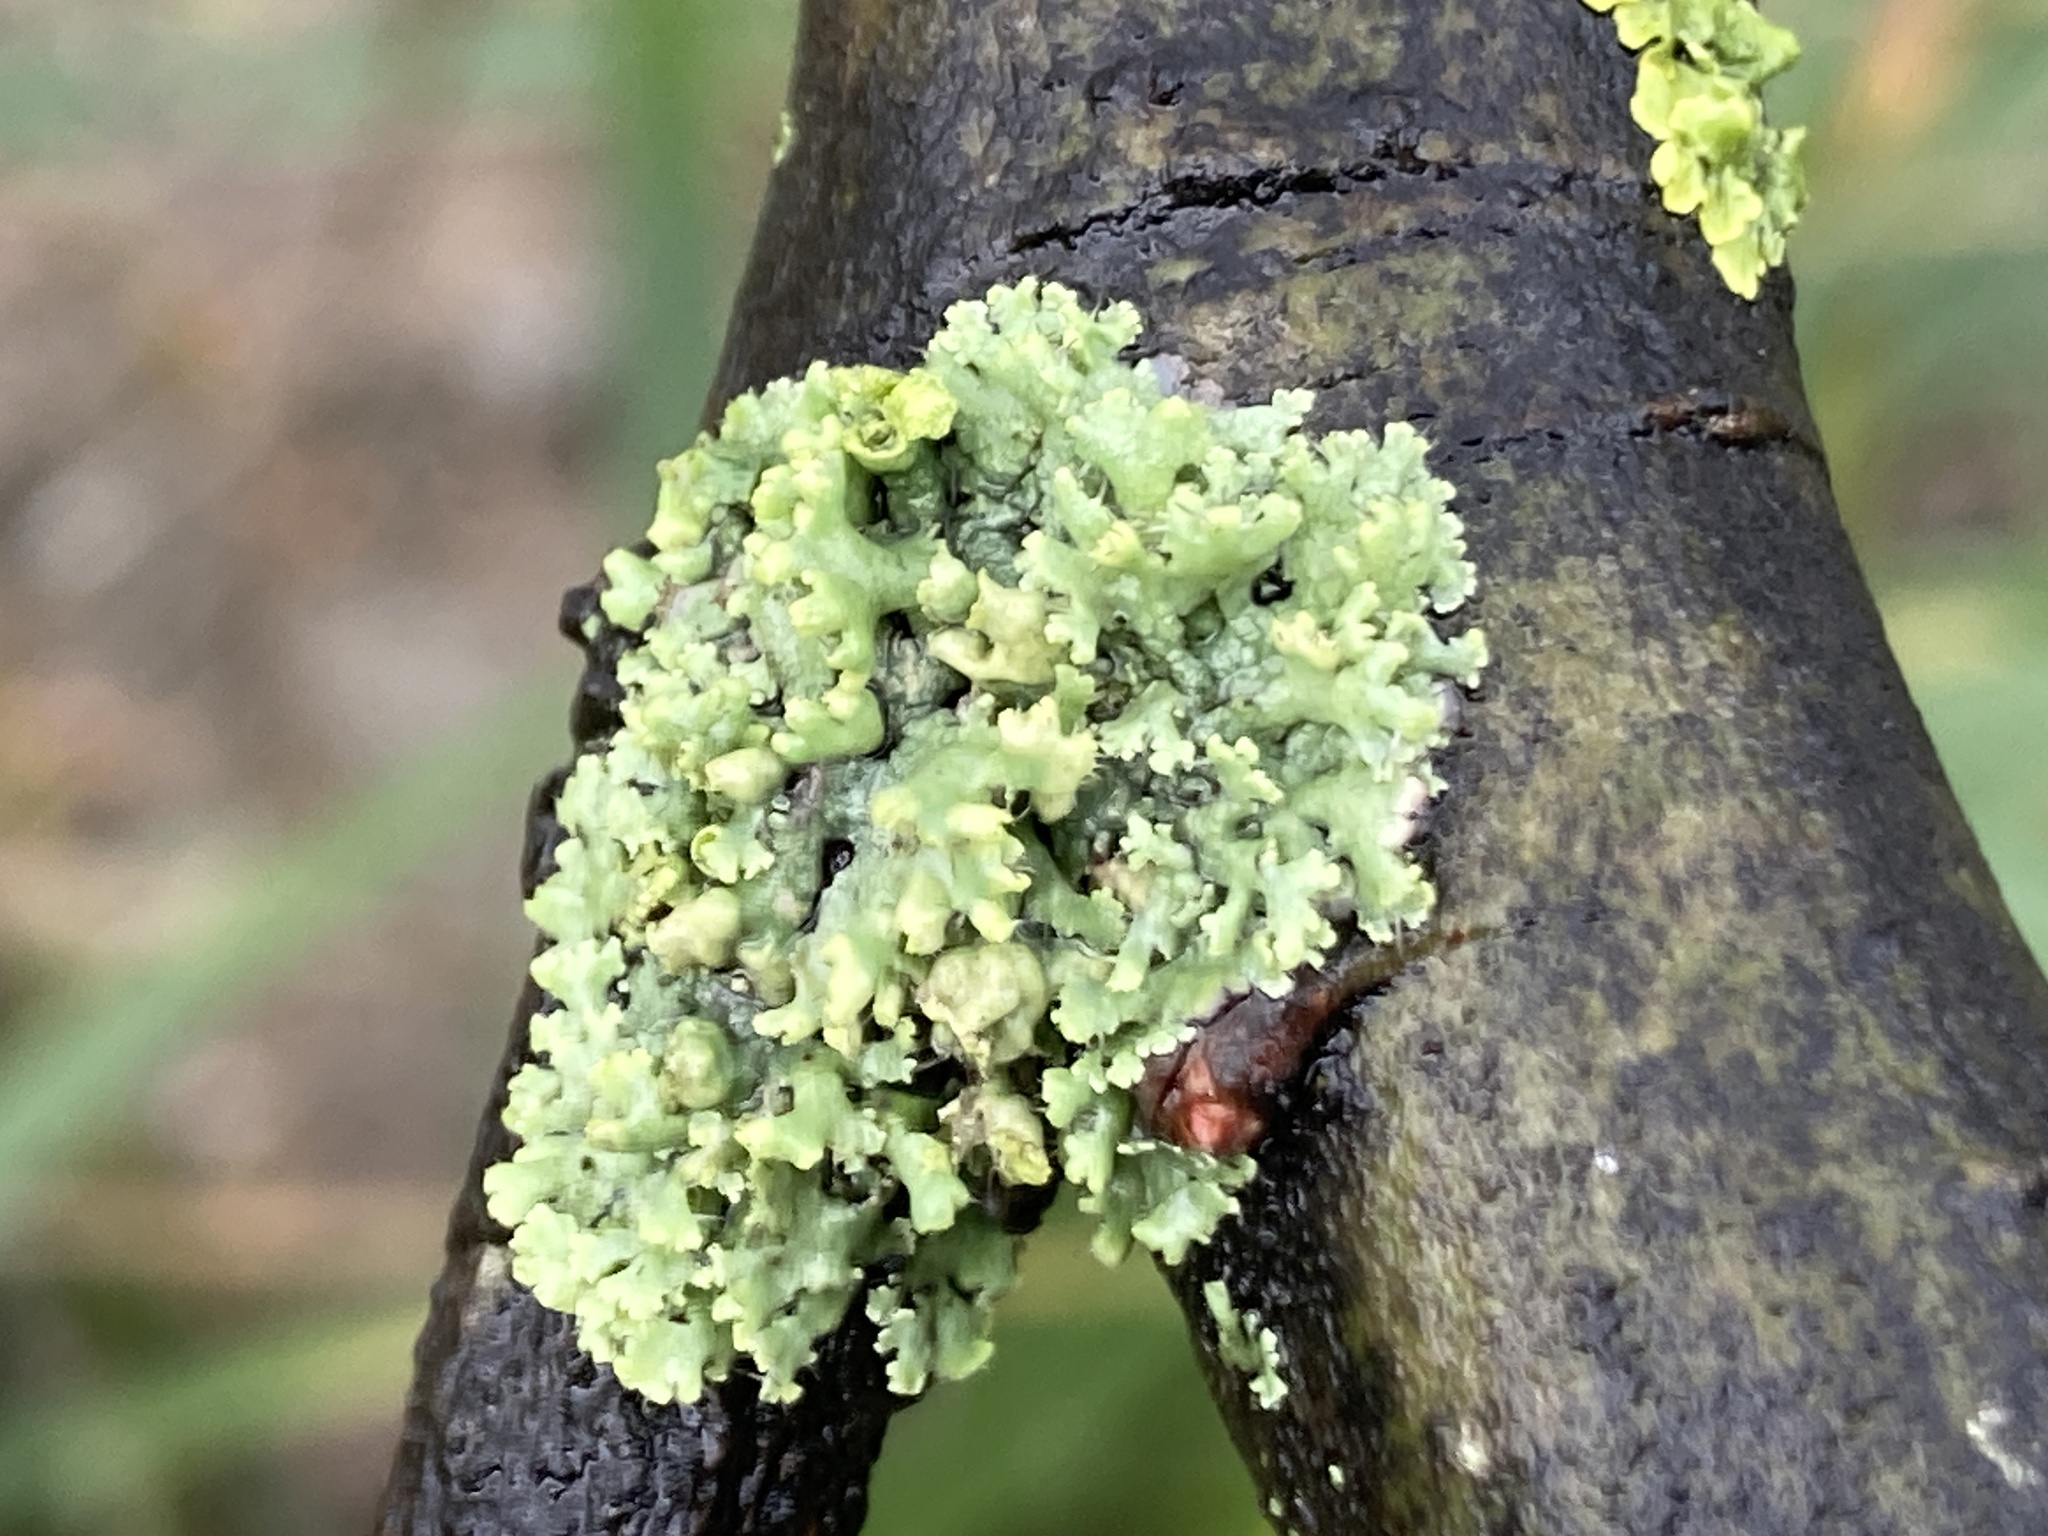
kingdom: Fungi
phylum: Ascomycota
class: Lecanoromycetes
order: Caliciales
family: Physciaceae
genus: Physcia
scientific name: Physcia adscendens
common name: Hooded rosette lichen
